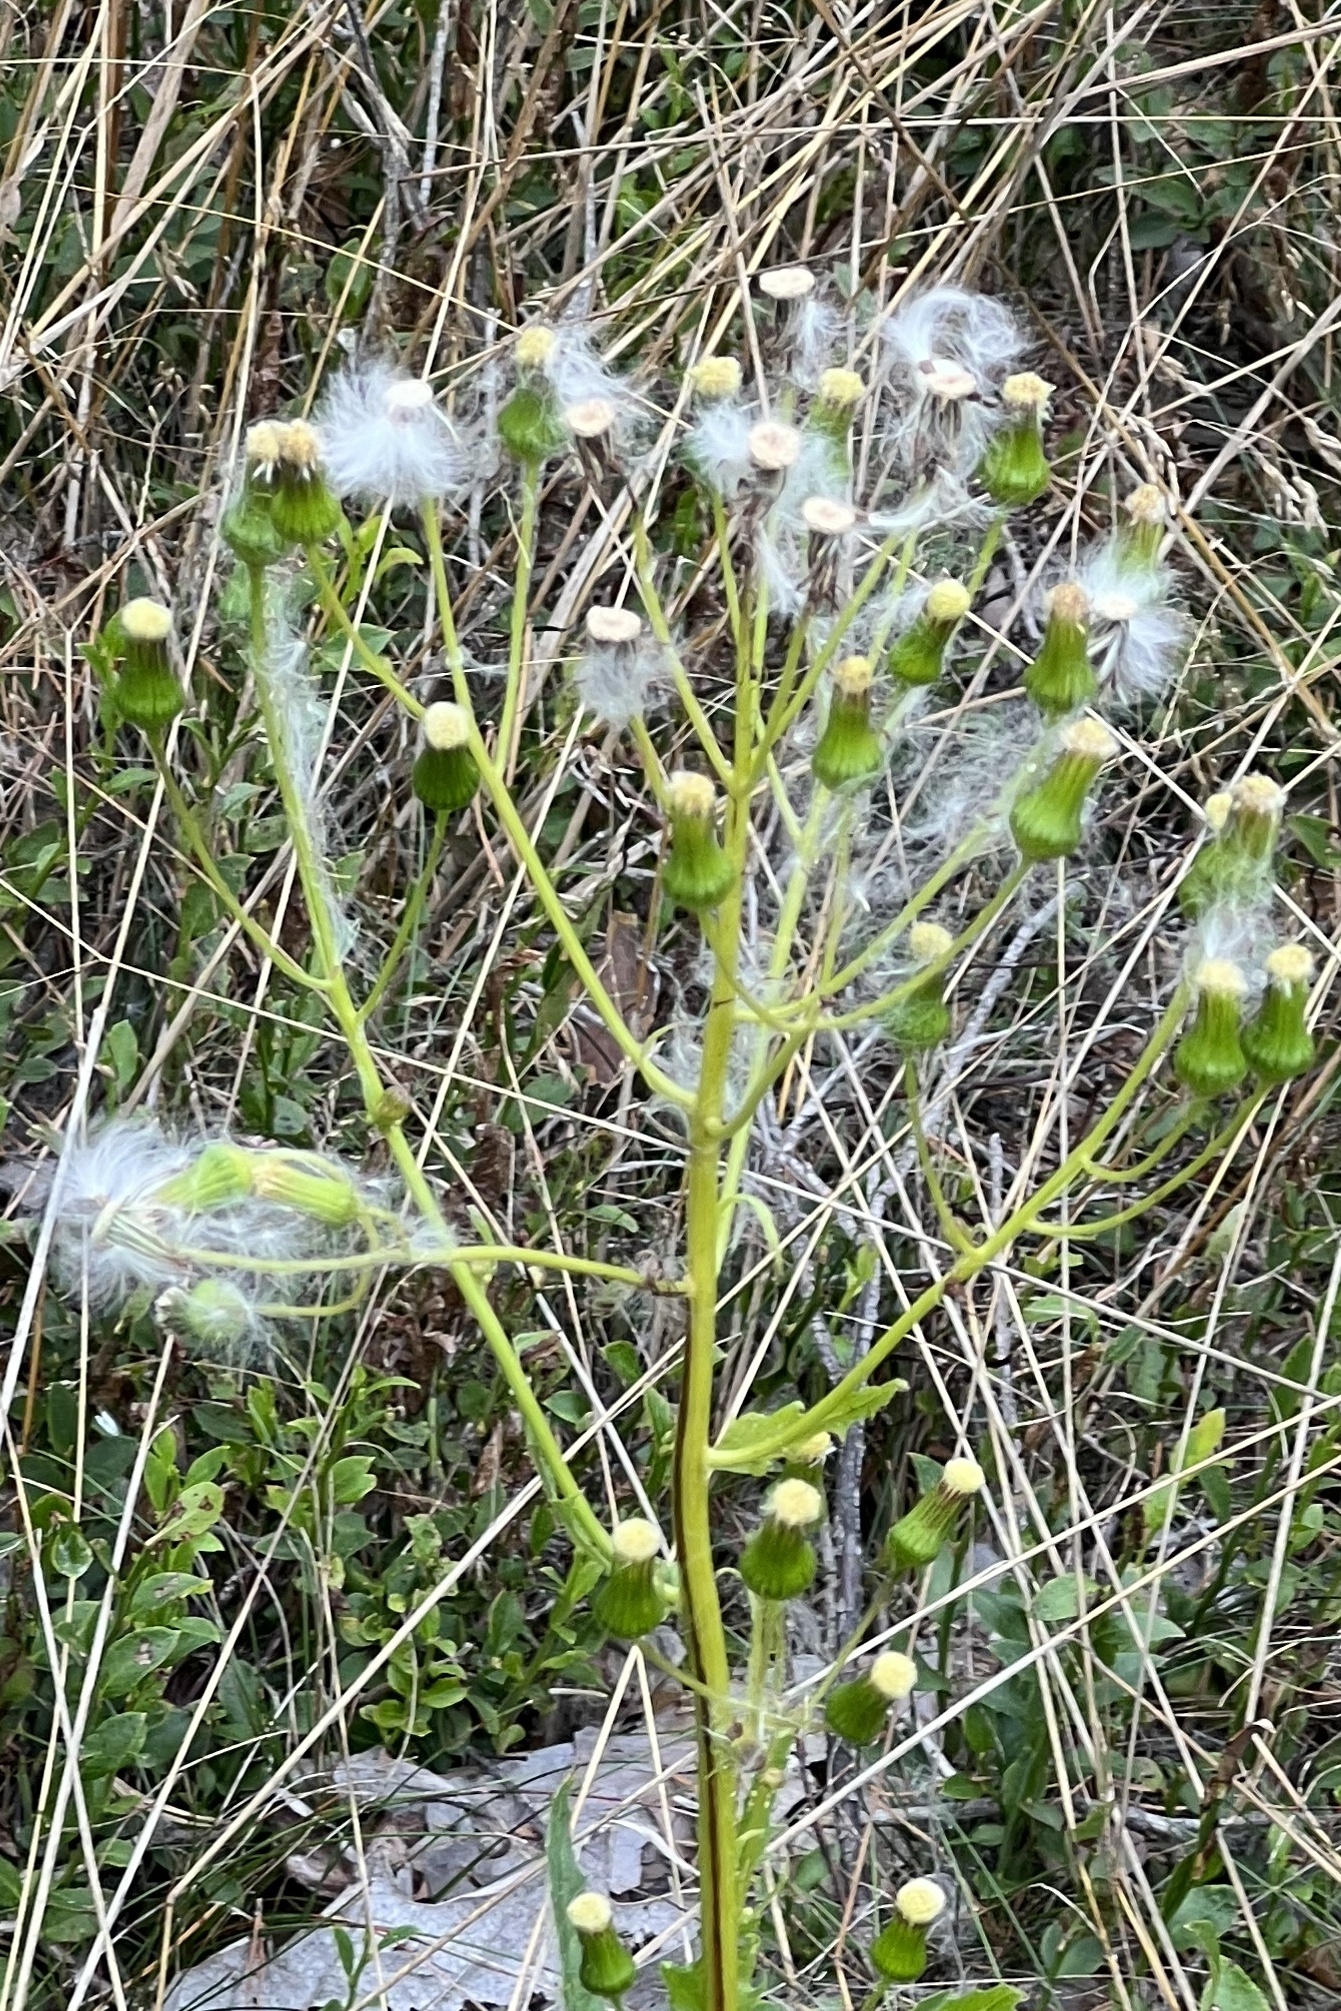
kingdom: Plantae
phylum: Tracheophyta
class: Magnoliopsida
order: Asterales
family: Asteraceae
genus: Erechtites
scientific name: Erechtites hieraciifolius
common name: American burnweed
